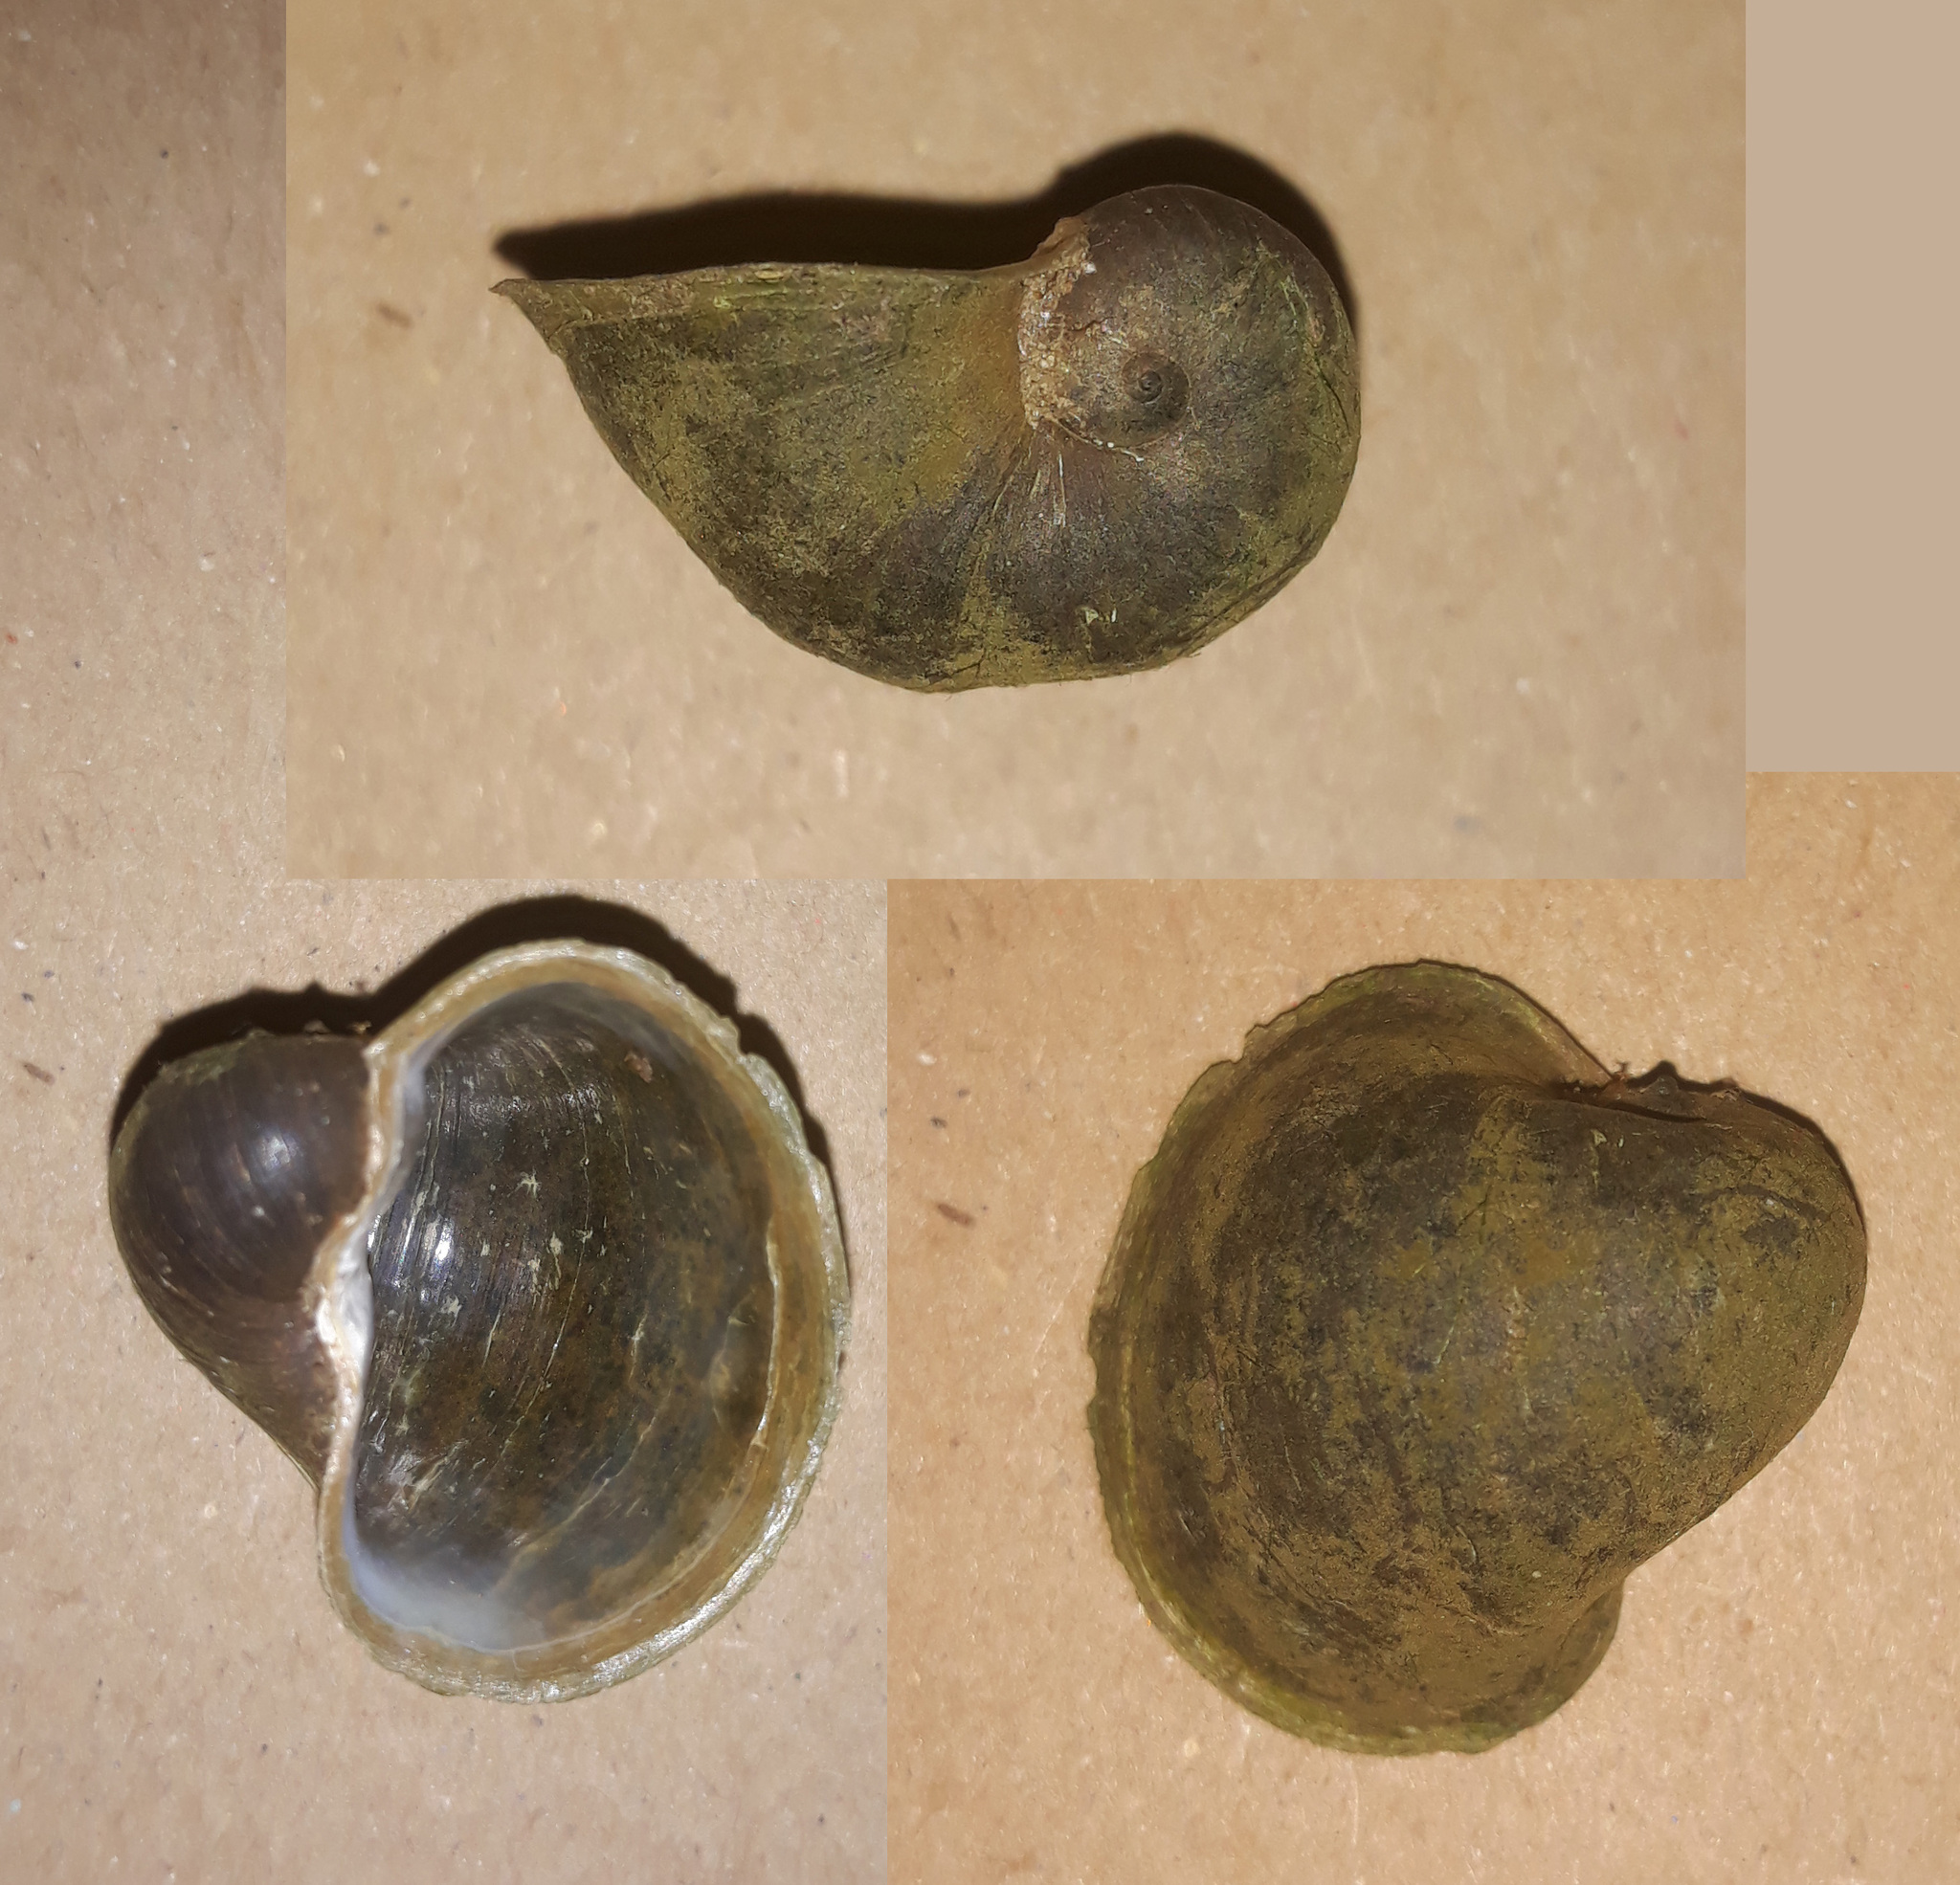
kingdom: Animalia
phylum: Mollusca
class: Gastropoda
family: Lymnaeidae
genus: Ampullaceana
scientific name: Ampullaceana ampla
